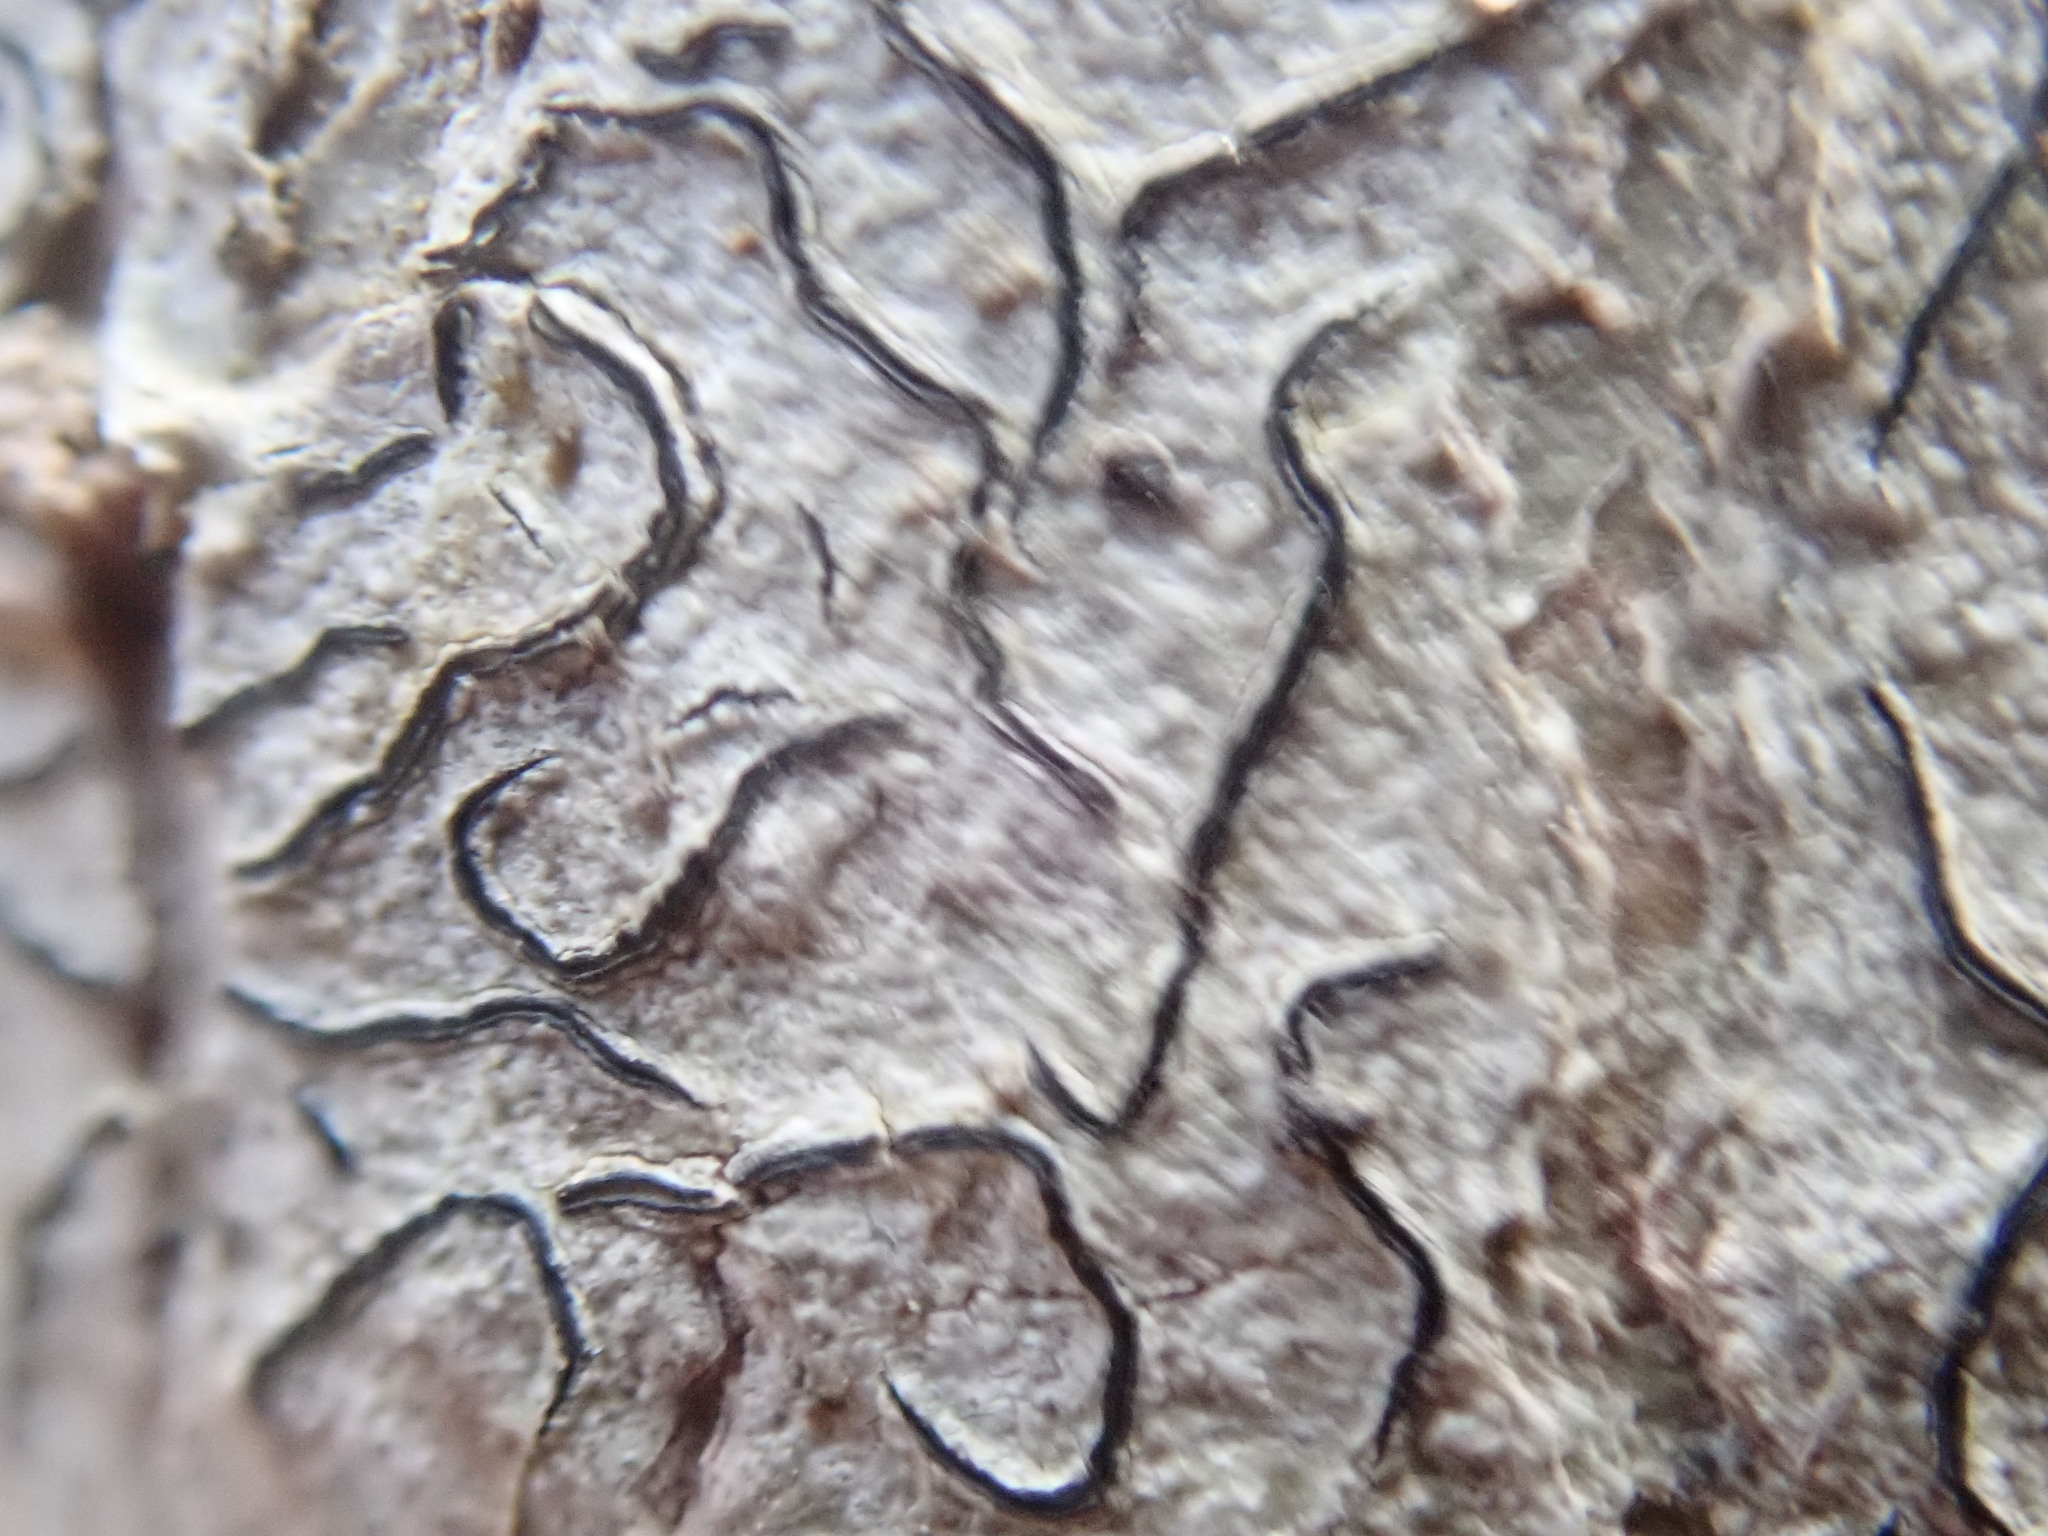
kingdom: Fungi
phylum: Ascomycota
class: Lecanoromycetes
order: Ostropales
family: Graphidaceae
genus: Graphis
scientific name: Graphis scripta
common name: Script lichen
